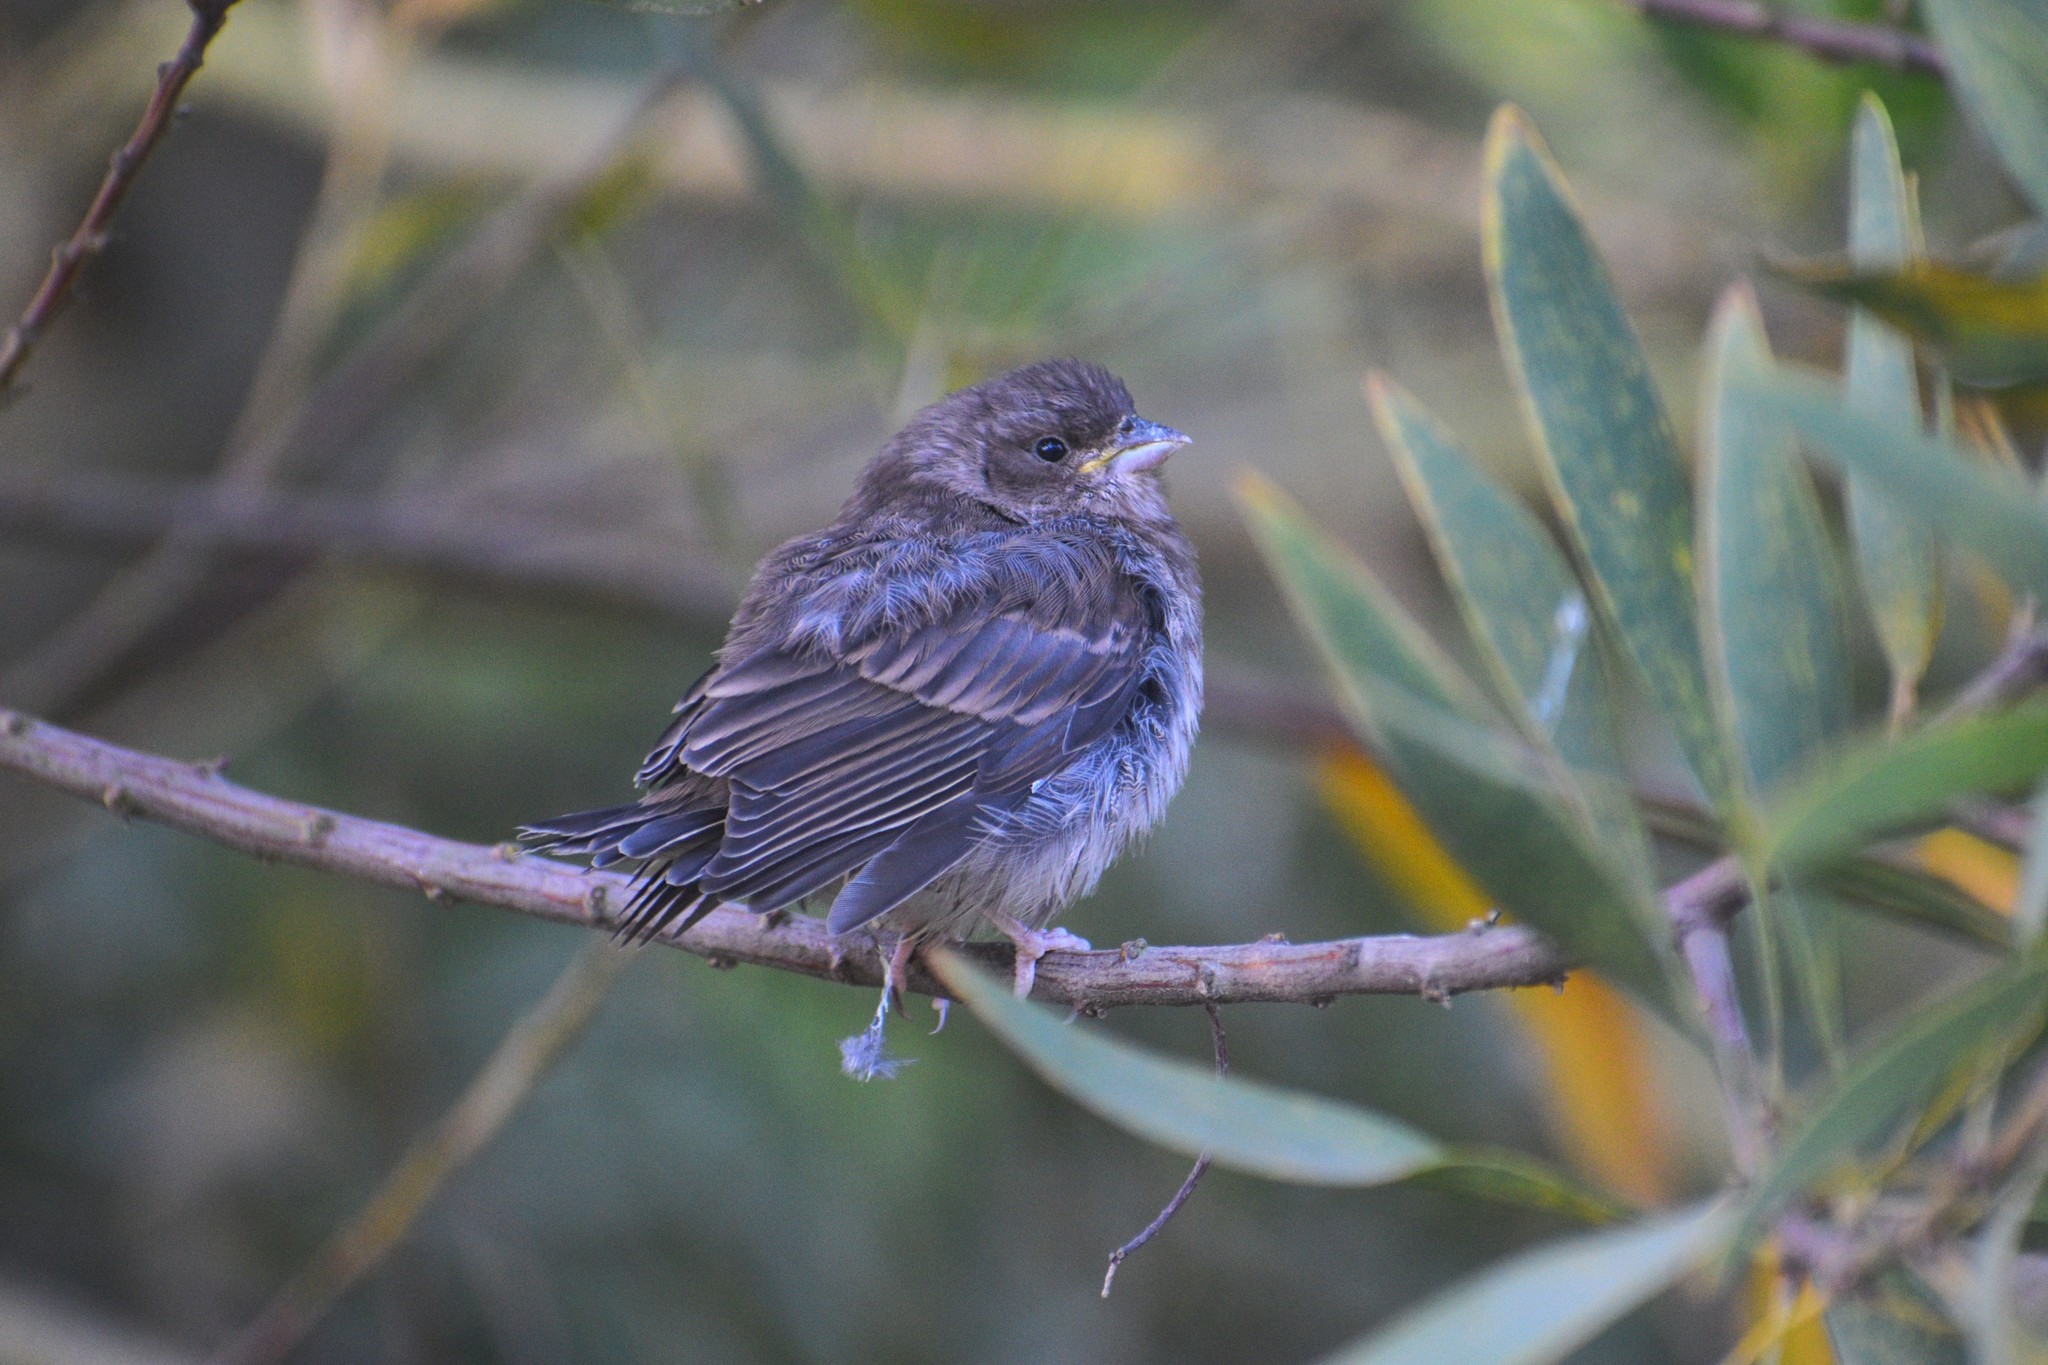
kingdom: Animalia
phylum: Chordata
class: Aves
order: Passeriformes
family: Fringillidae
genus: Haemorhous
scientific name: Haemorhous mexicanus
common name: House finch
